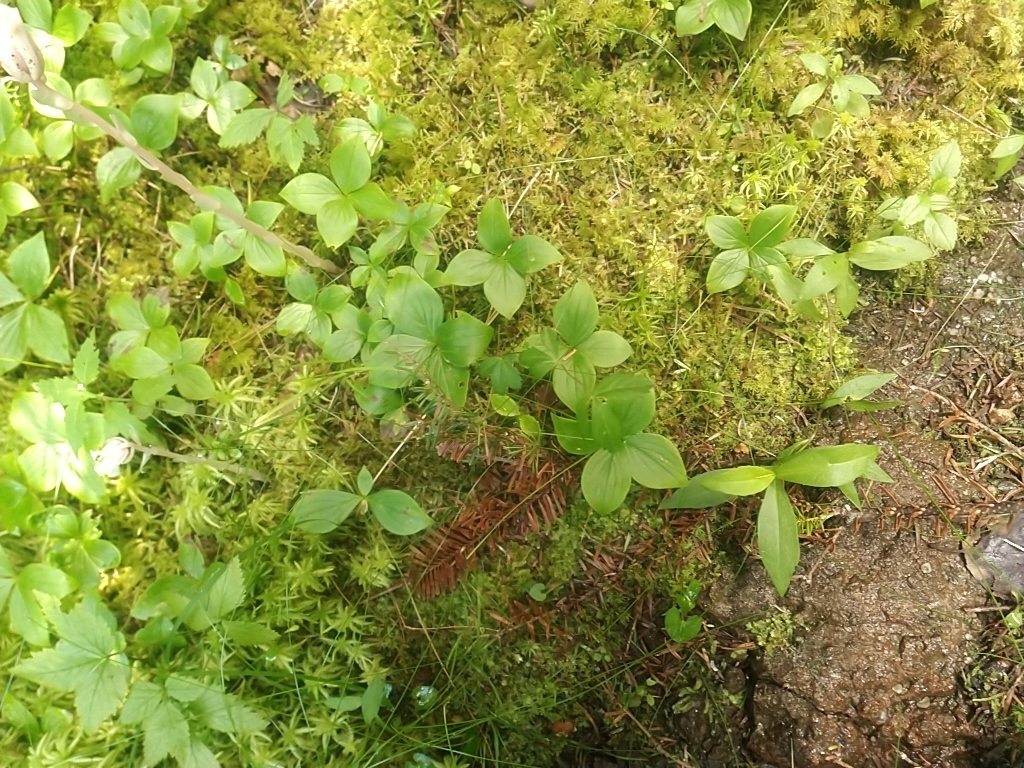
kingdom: Plantae
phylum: Tracheophyta
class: Magnoliopsida
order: Cornales
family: Cornaceae
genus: Cornus
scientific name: Cornus canadensis
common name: Creeping dogwood
